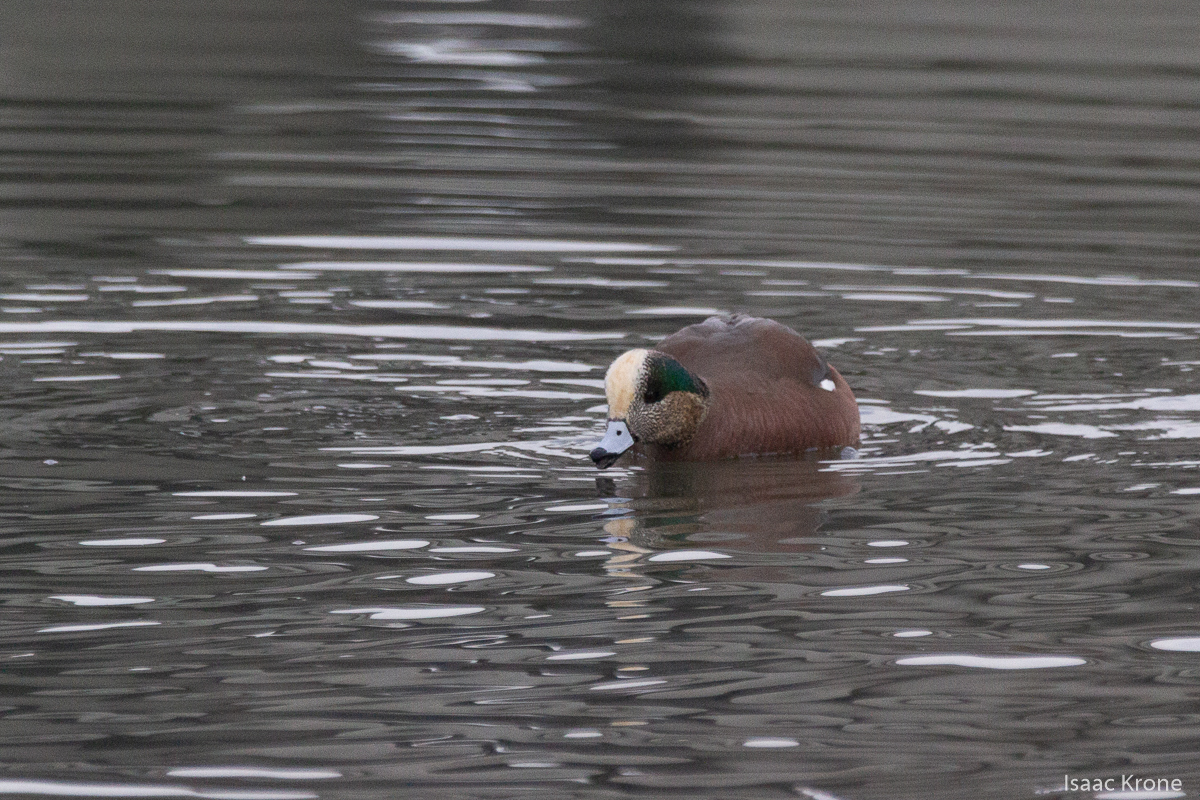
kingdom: Animalia
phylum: Chordata
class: Aves
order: Anseriformes
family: Anatidae
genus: Mareca
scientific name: Mareca americana
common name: American wigeon
